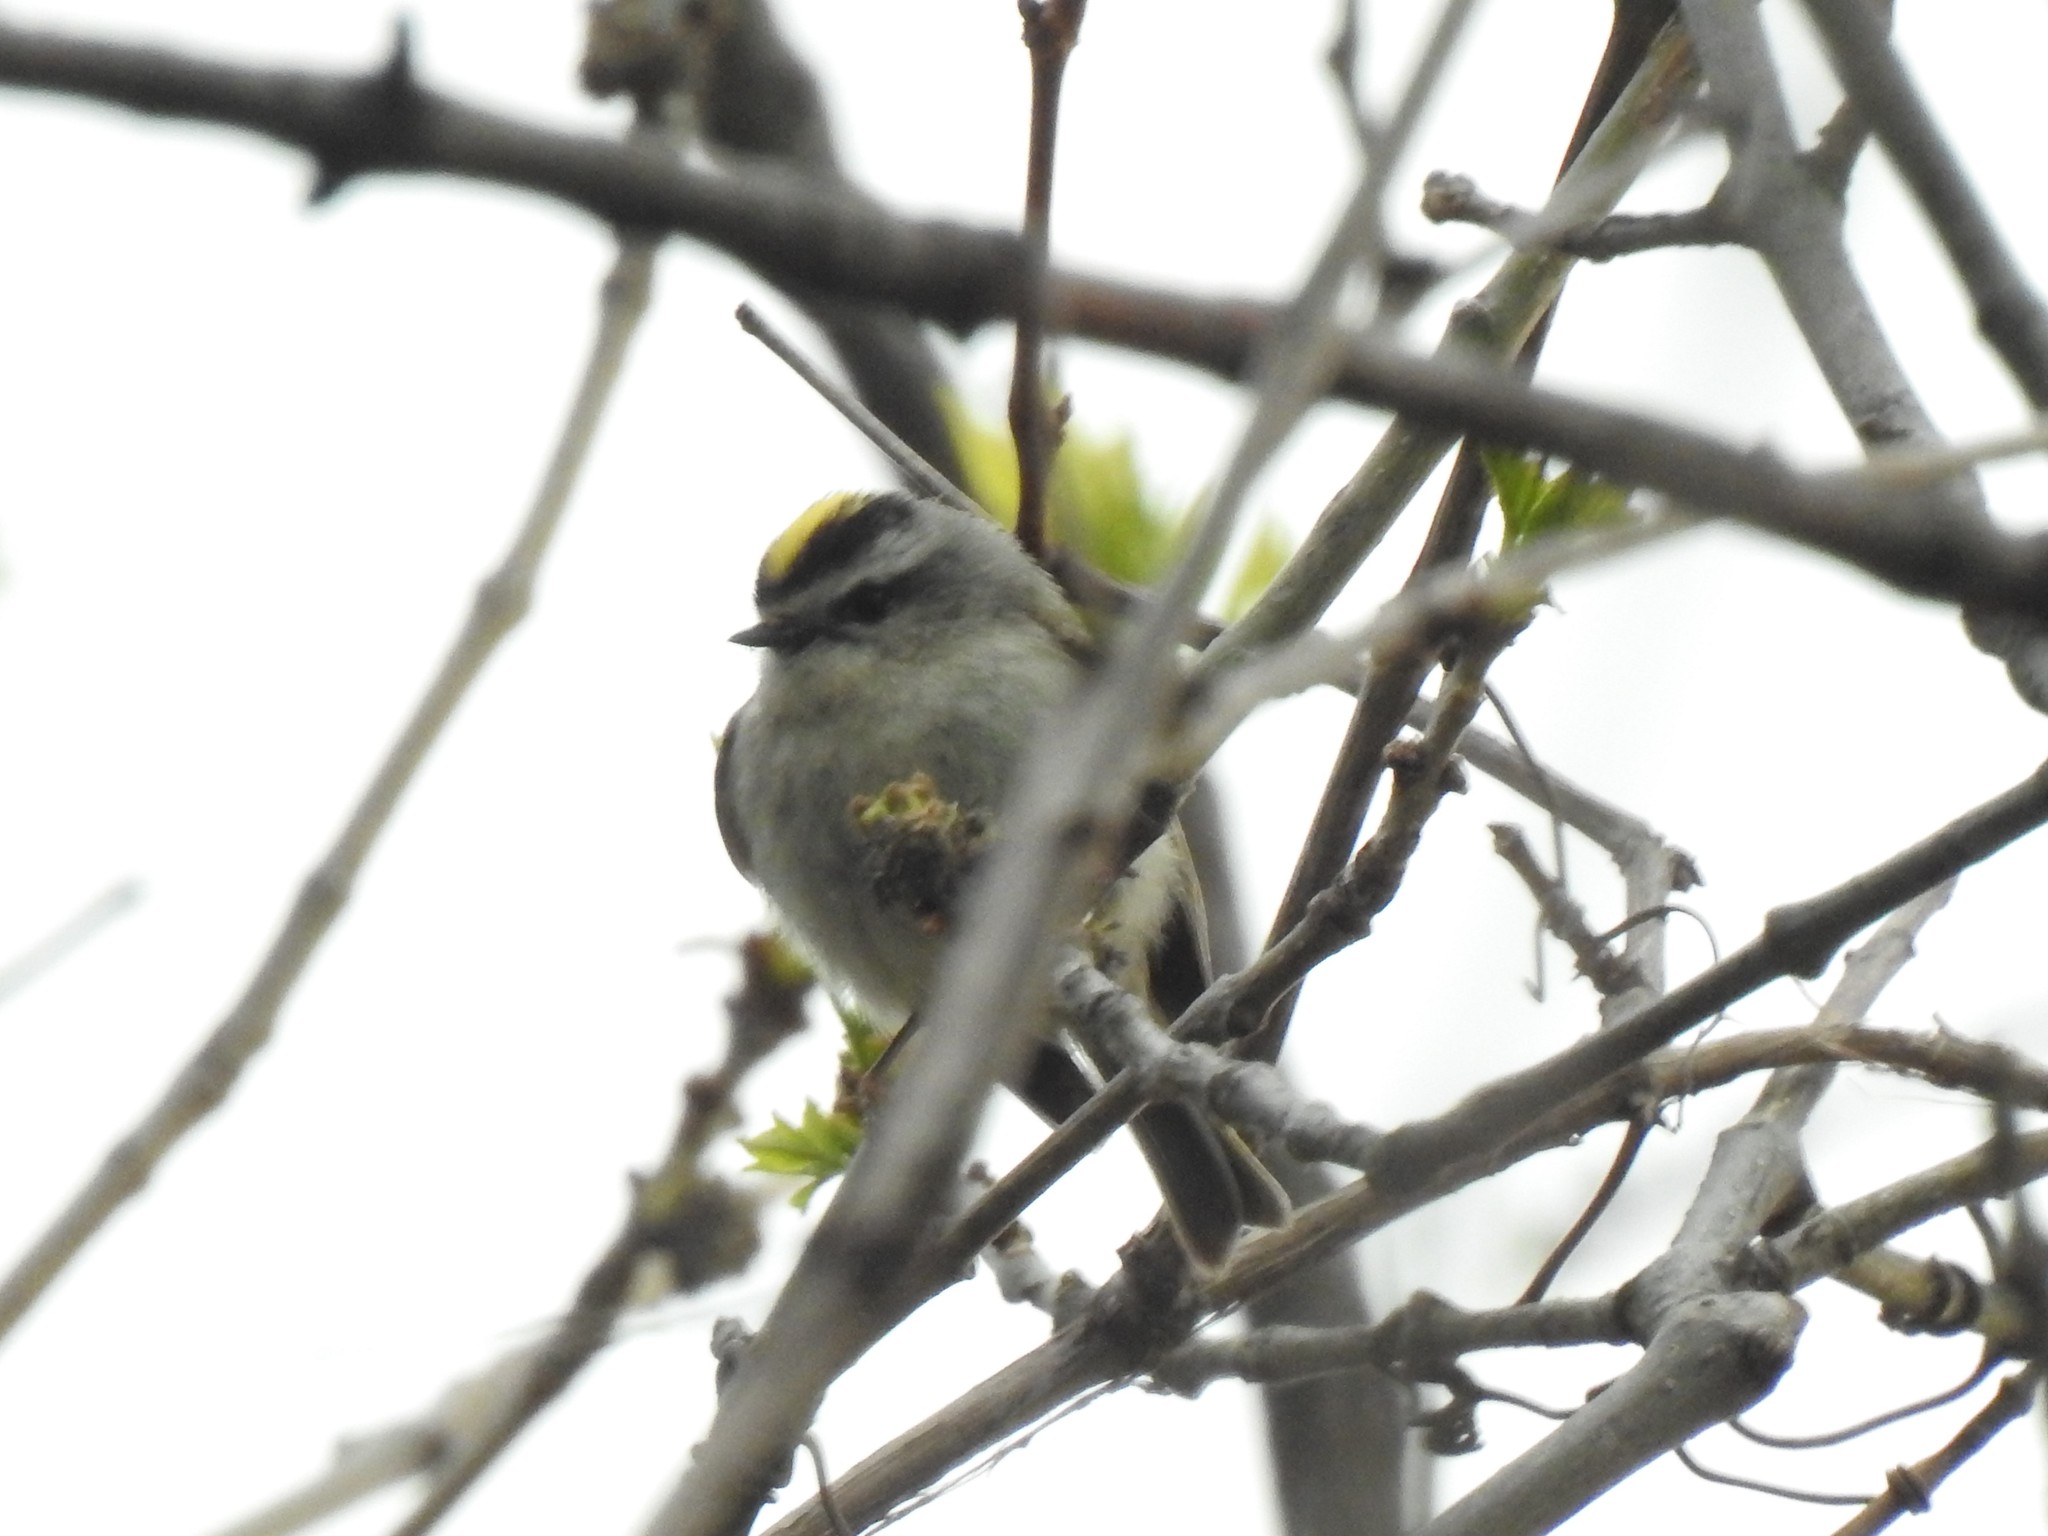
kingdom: Animalia
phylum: Chordata
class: Aves
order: Passeriformes
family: Regulidae
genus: Regulus
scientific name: Regulus satrapa
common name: Golden-crowned kinglet
